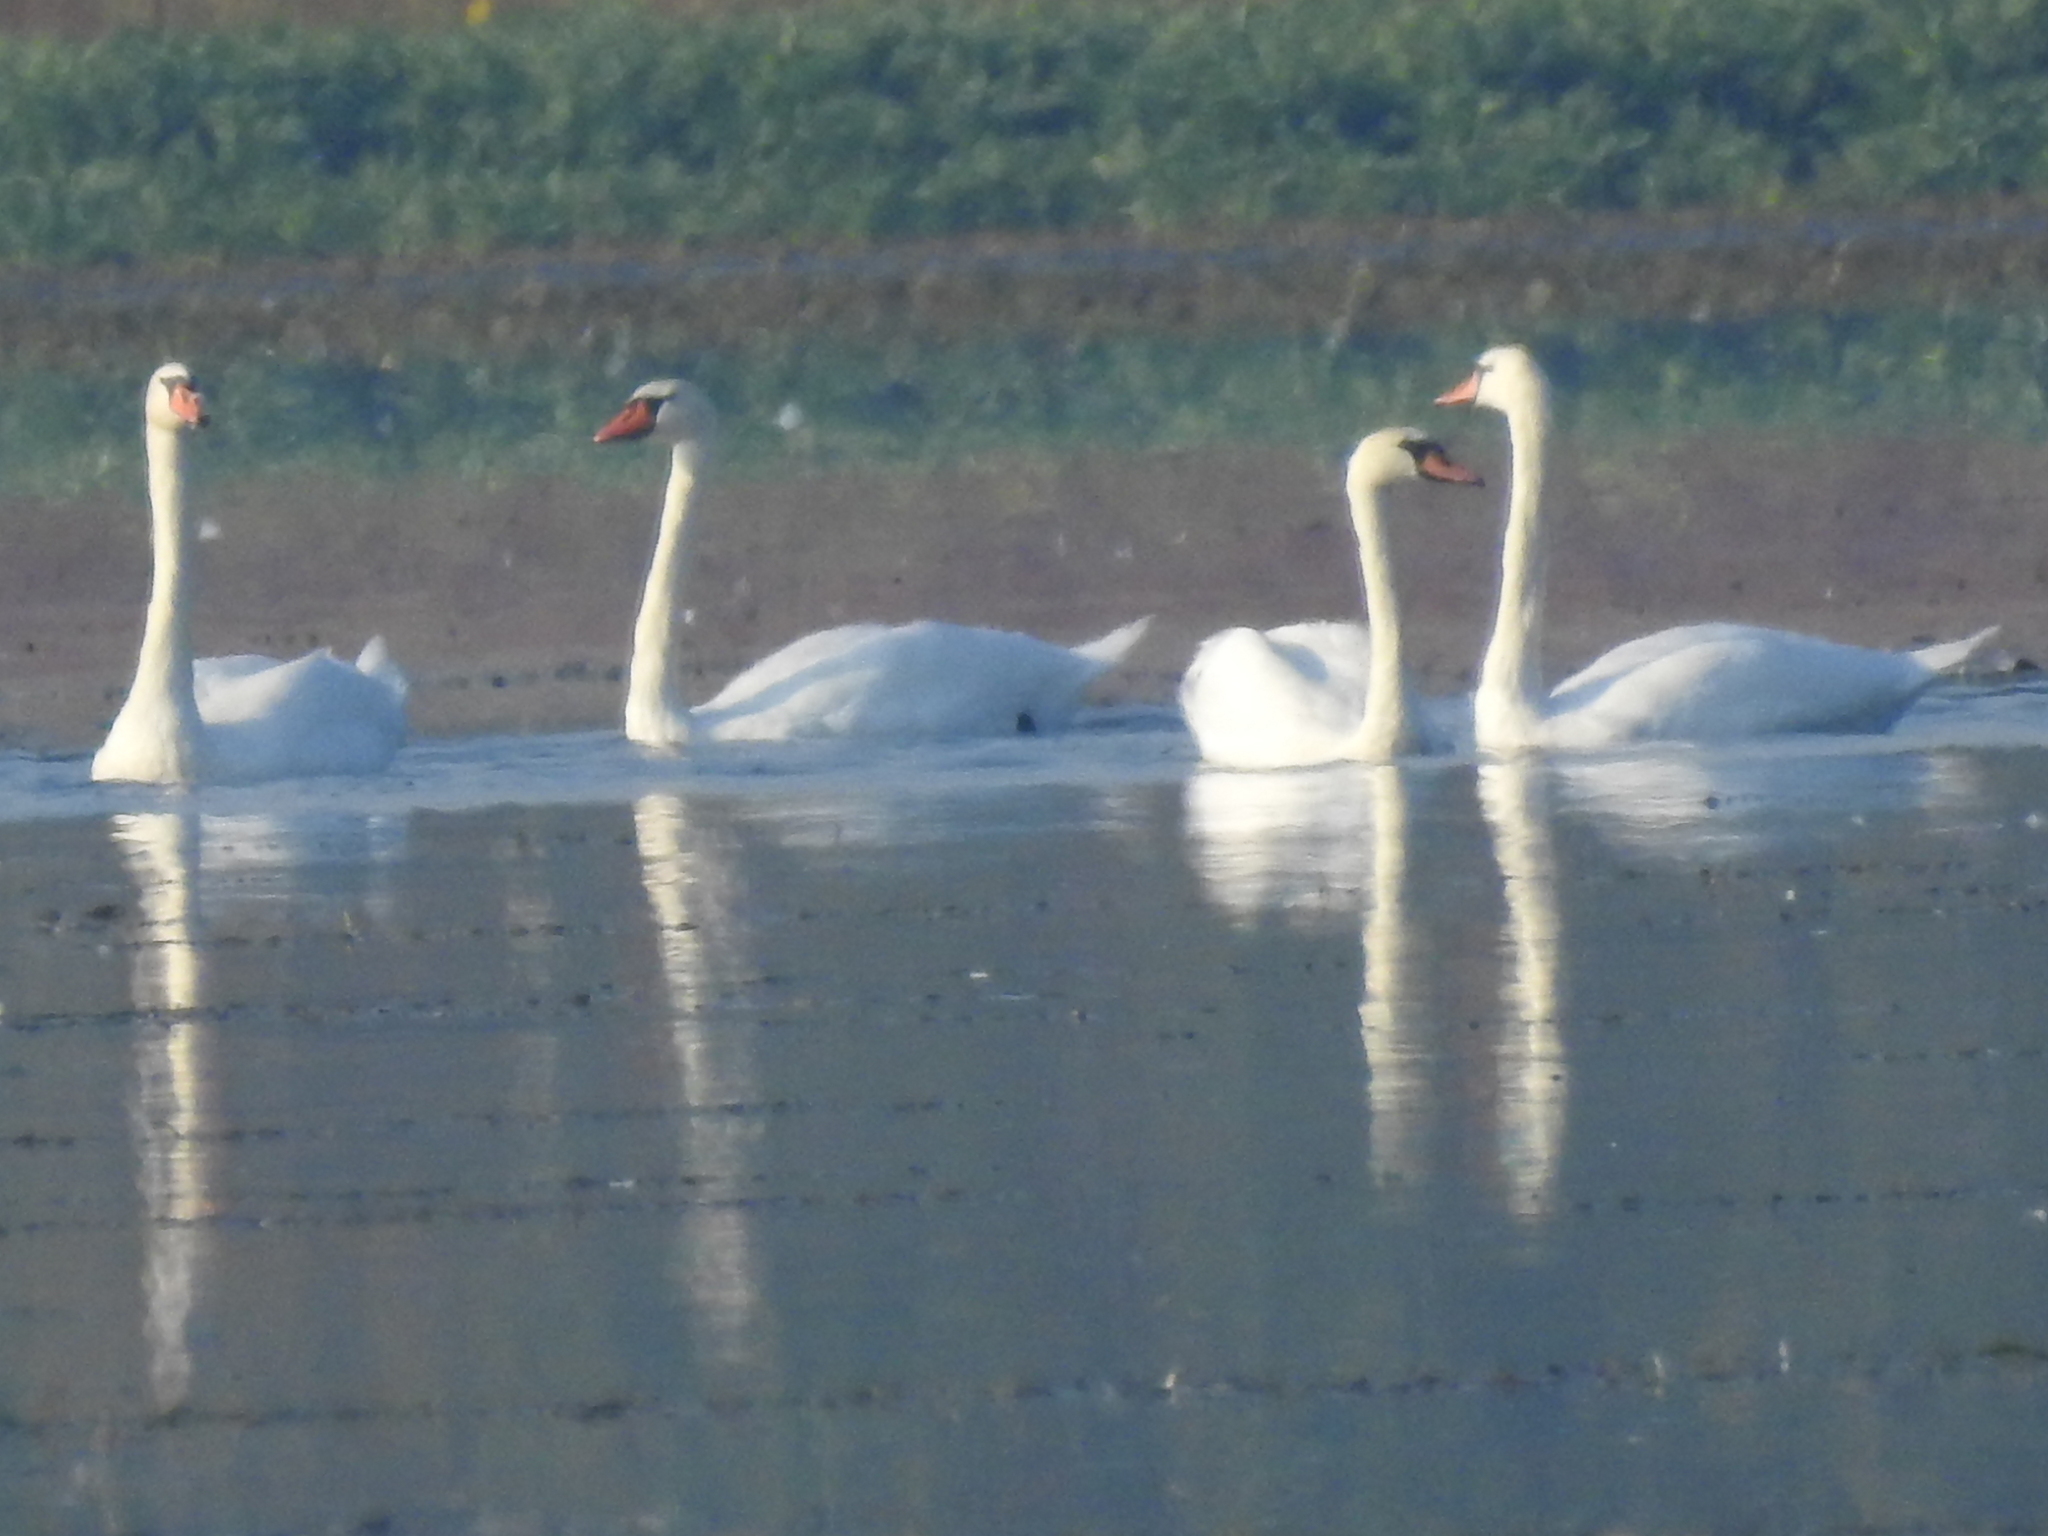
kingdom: Animalia
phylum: Chordata
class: Aves
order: Anseriformes
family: Anatidae
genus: Cygnus
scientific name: Cygnus olor
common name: Mute swan
